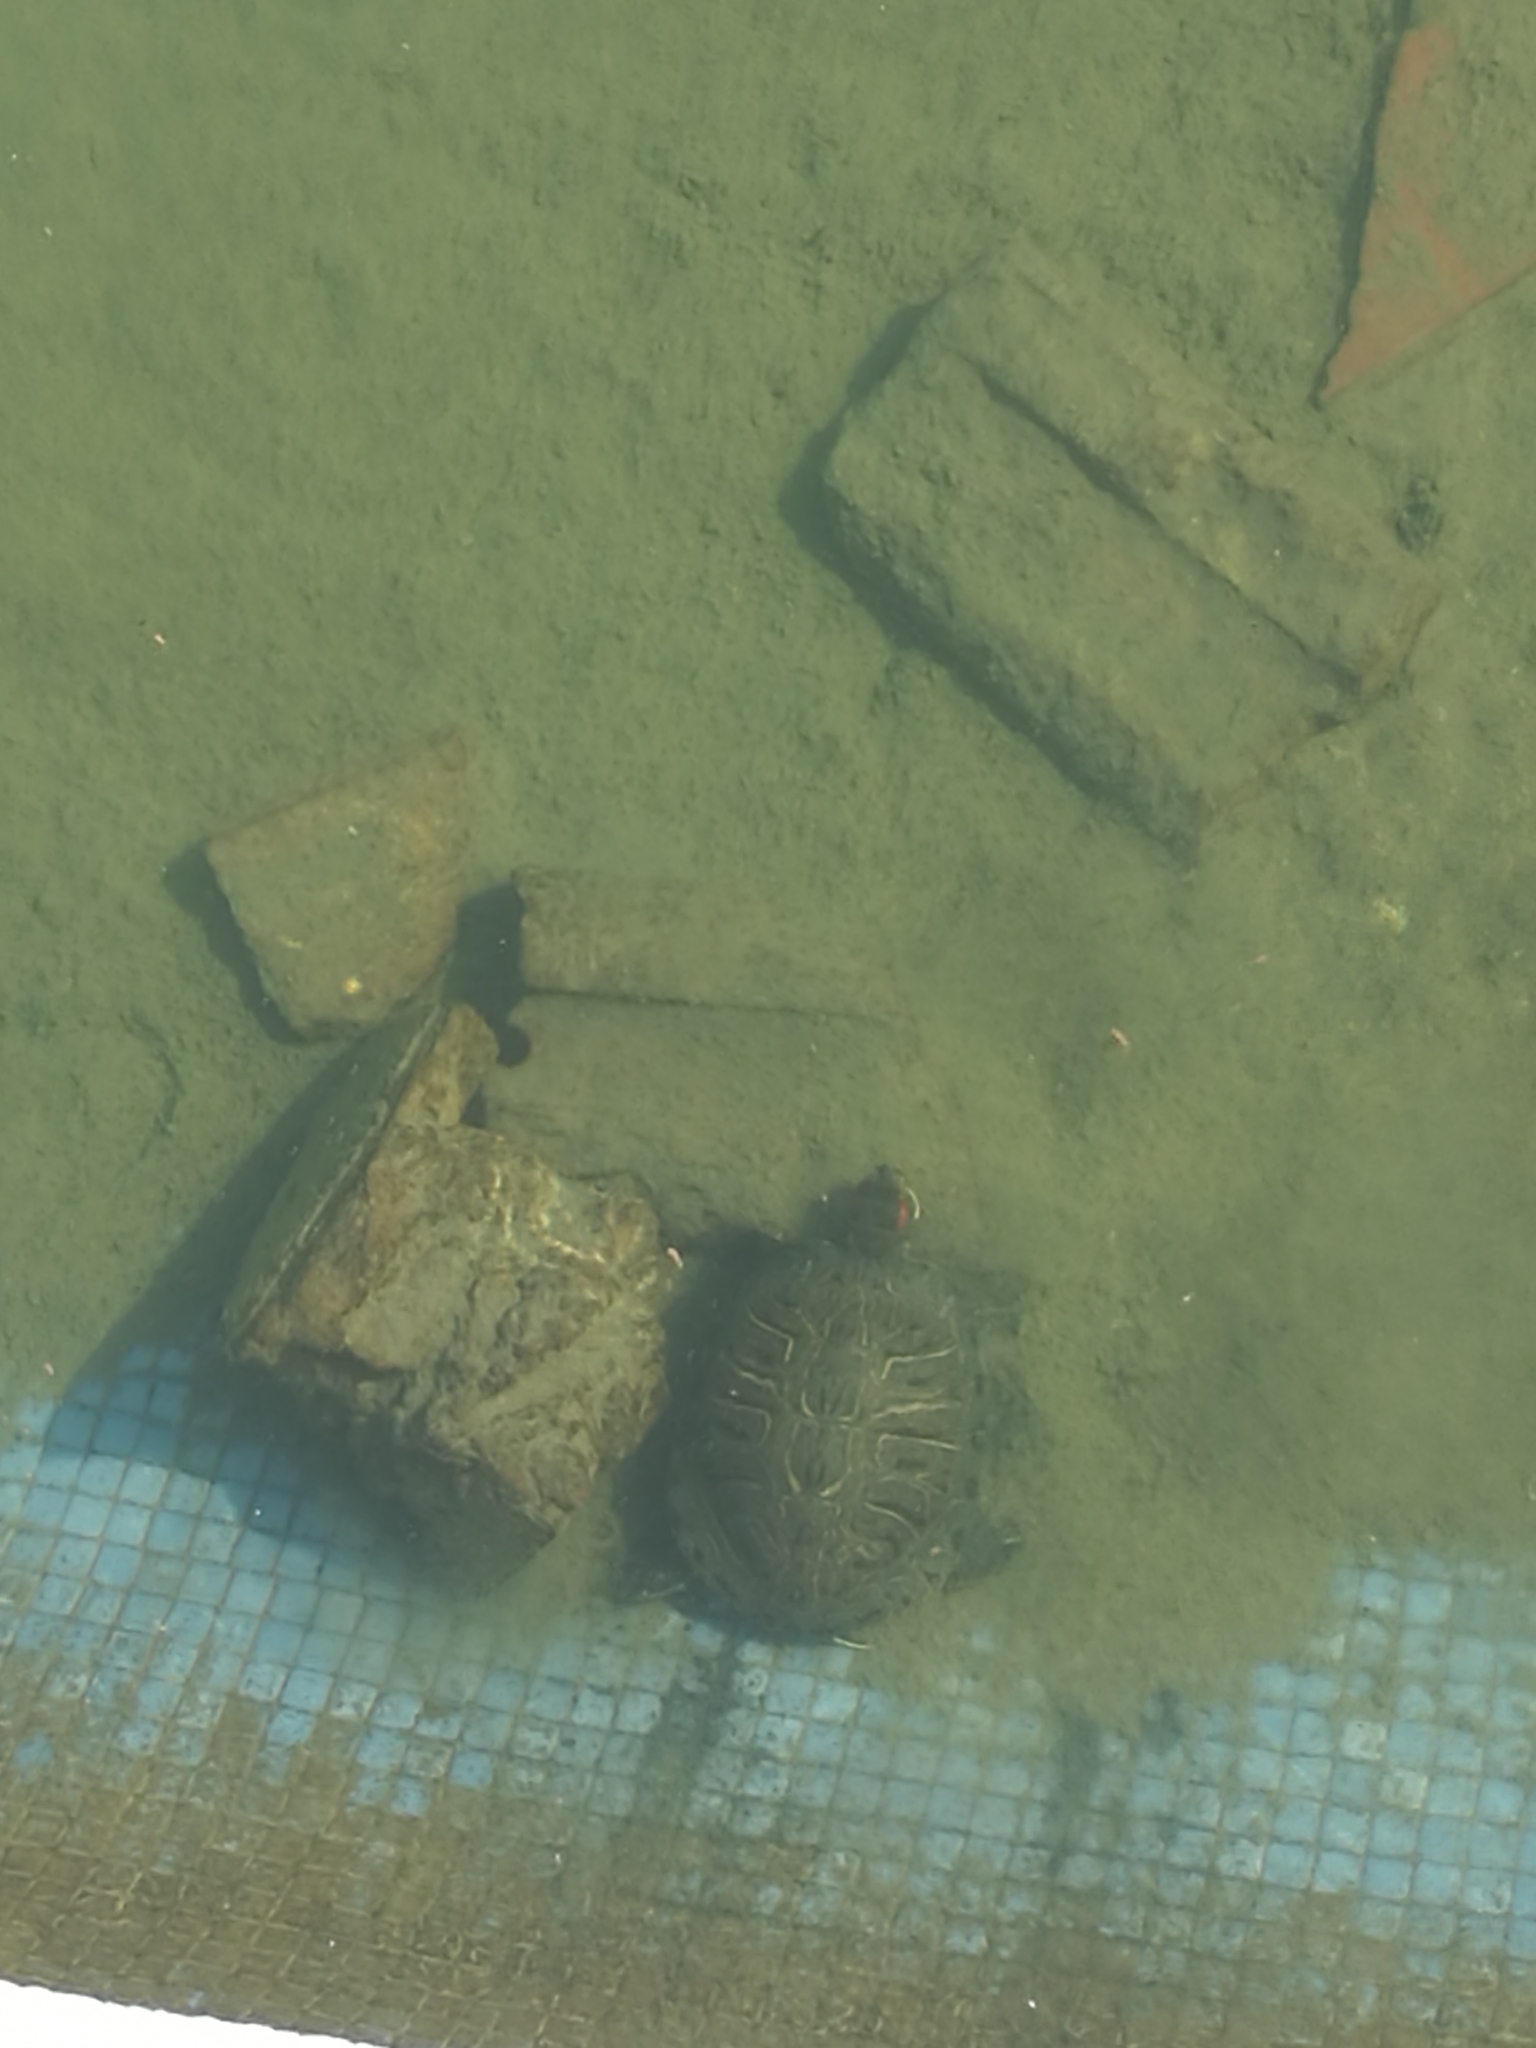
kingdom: Animalia
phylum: Chordata
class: Testudines
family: Emydidae
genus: Trachemys
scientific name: Trachemys scripta
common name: Slider
